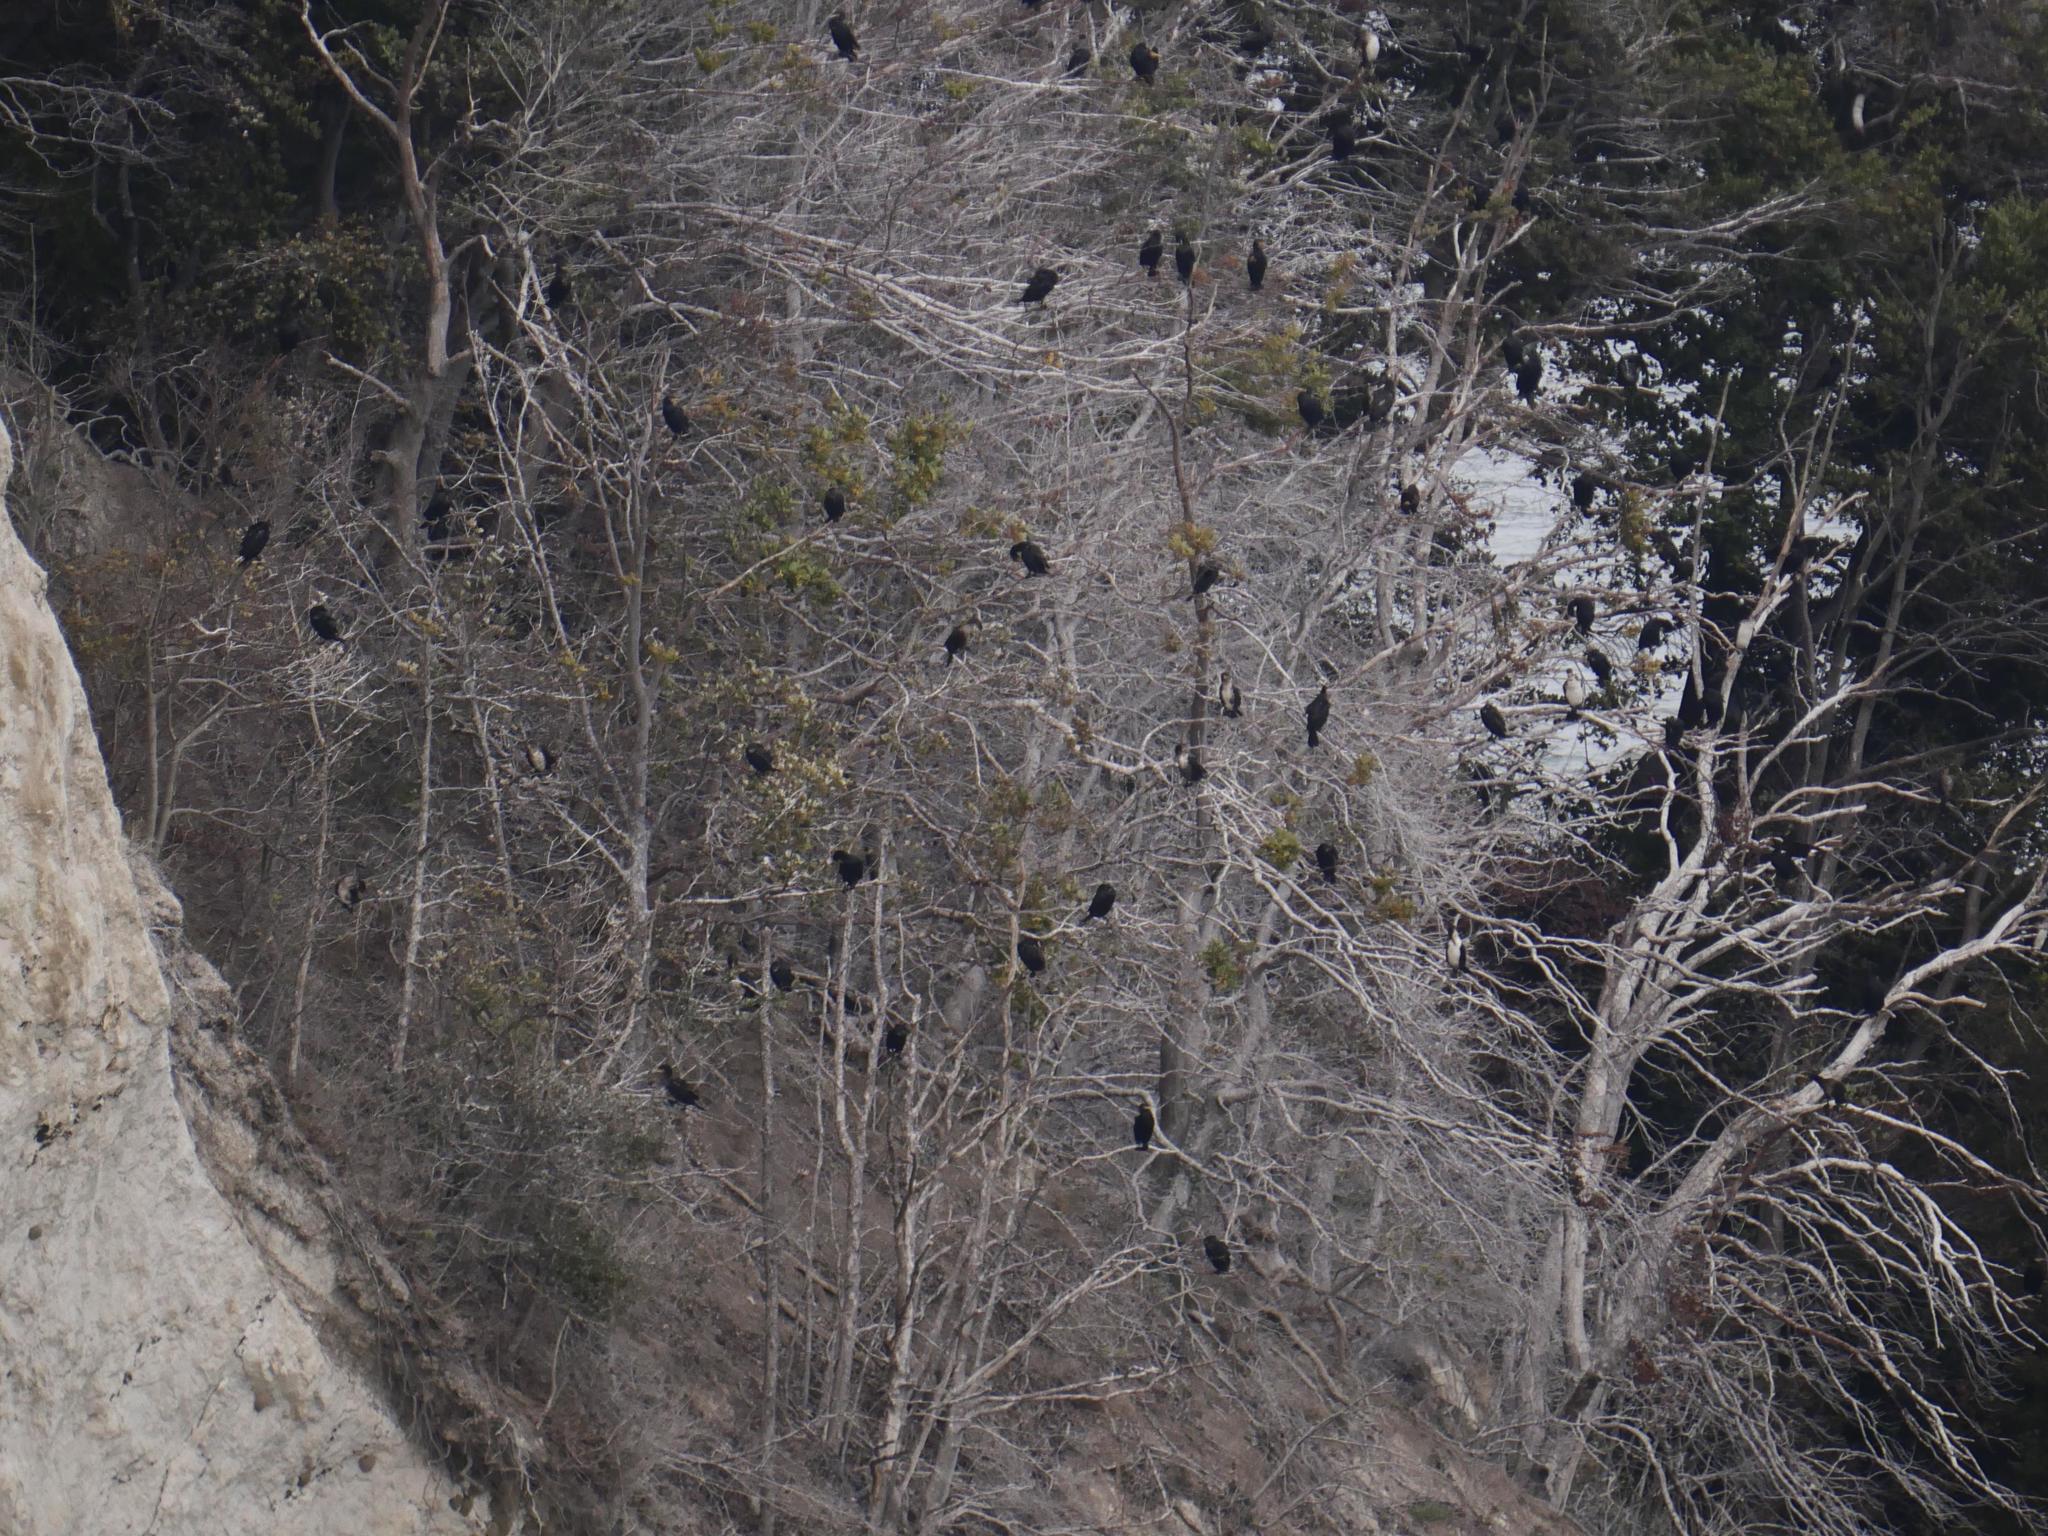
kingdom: Animalia
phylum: Chordata
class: Aves
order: Suliformes
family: Phalacrocoracidae
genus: Phalacrocorax
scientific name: Phalacrocorax carbo
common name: Great cormorant
